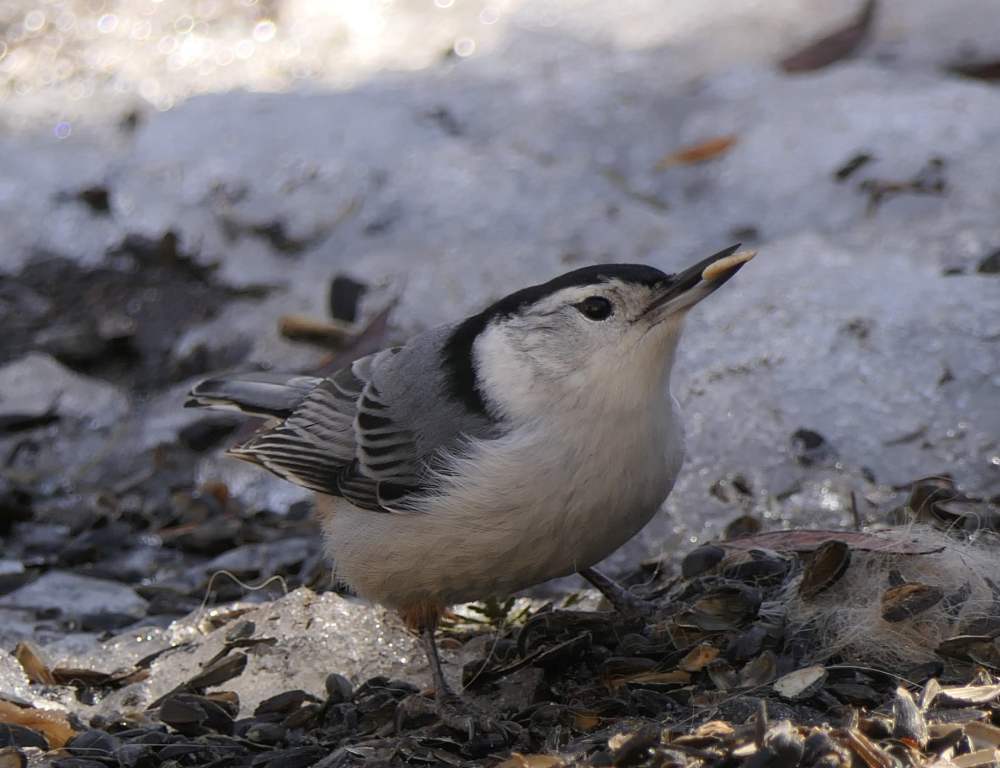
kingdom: Animalia
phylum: Chordata
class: Aves
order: Passeriformes
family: Sittidae
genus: Sitta
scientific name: Sitta carolinensis
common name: White-breasted nuthatch
